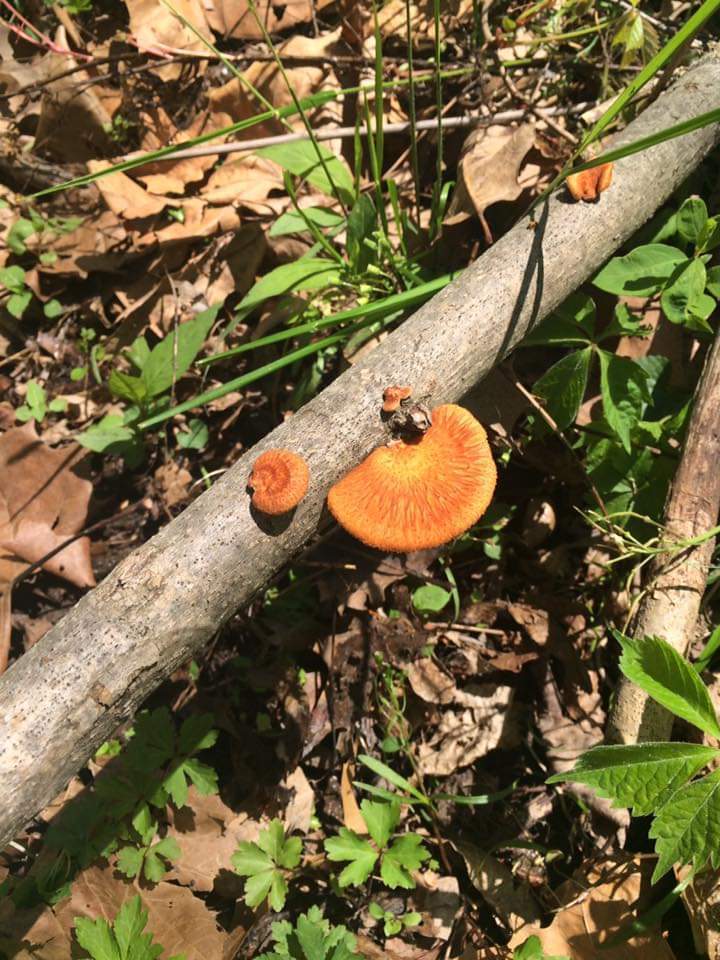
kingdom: Fungi
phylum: Basidiomycota
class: Agaricomycetes
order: Polyporales
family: Polyporaceae
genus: Neofavolus
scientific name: Neofavolus alveolaris
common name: Hexagonal-pored polypore
